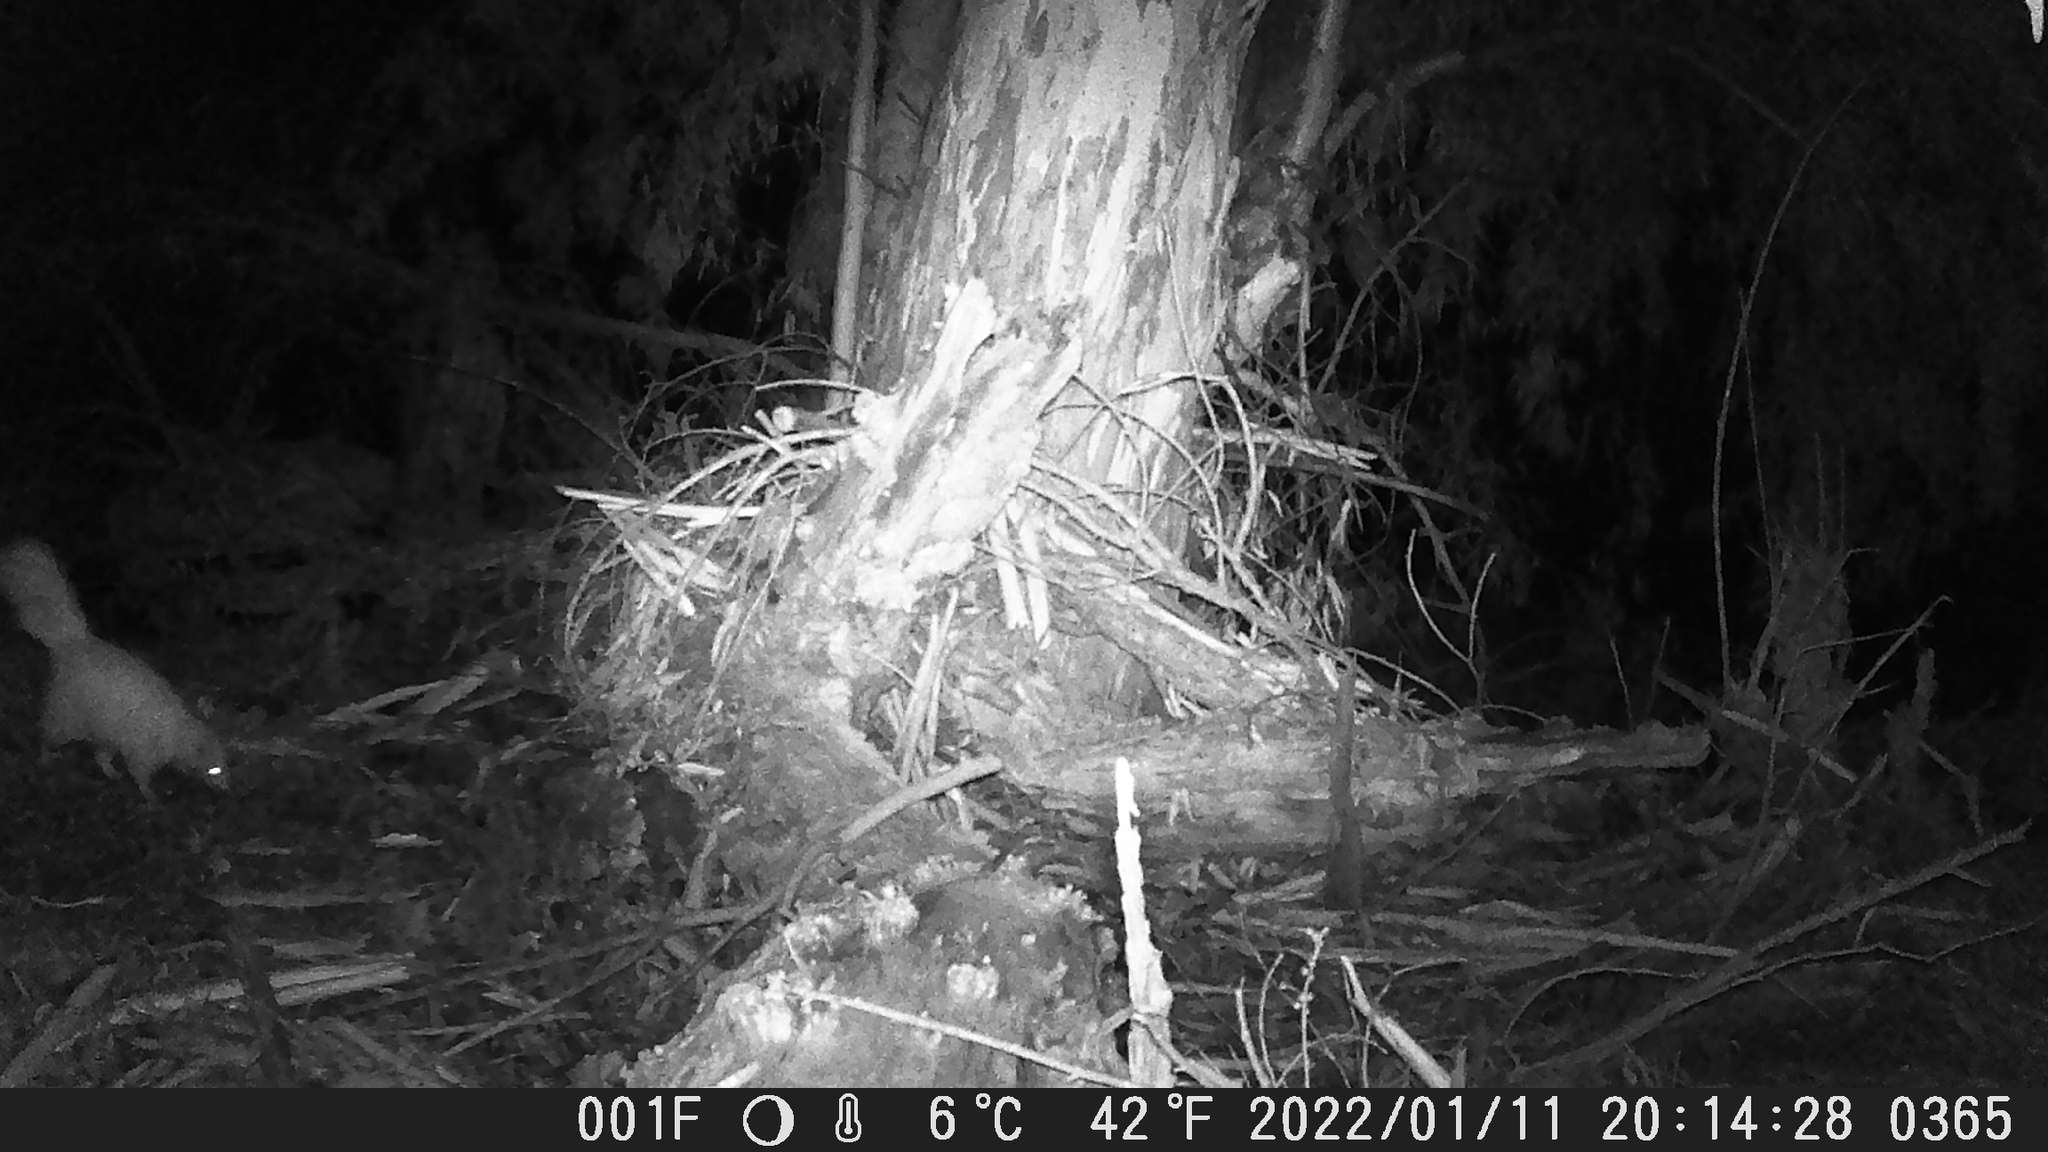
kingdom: Animalia
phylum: Chordata
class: Mammalia
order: Carnivora
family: Mephitidae
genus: Mephitis
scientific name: Mephitis mephitis
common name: Striped skunk
